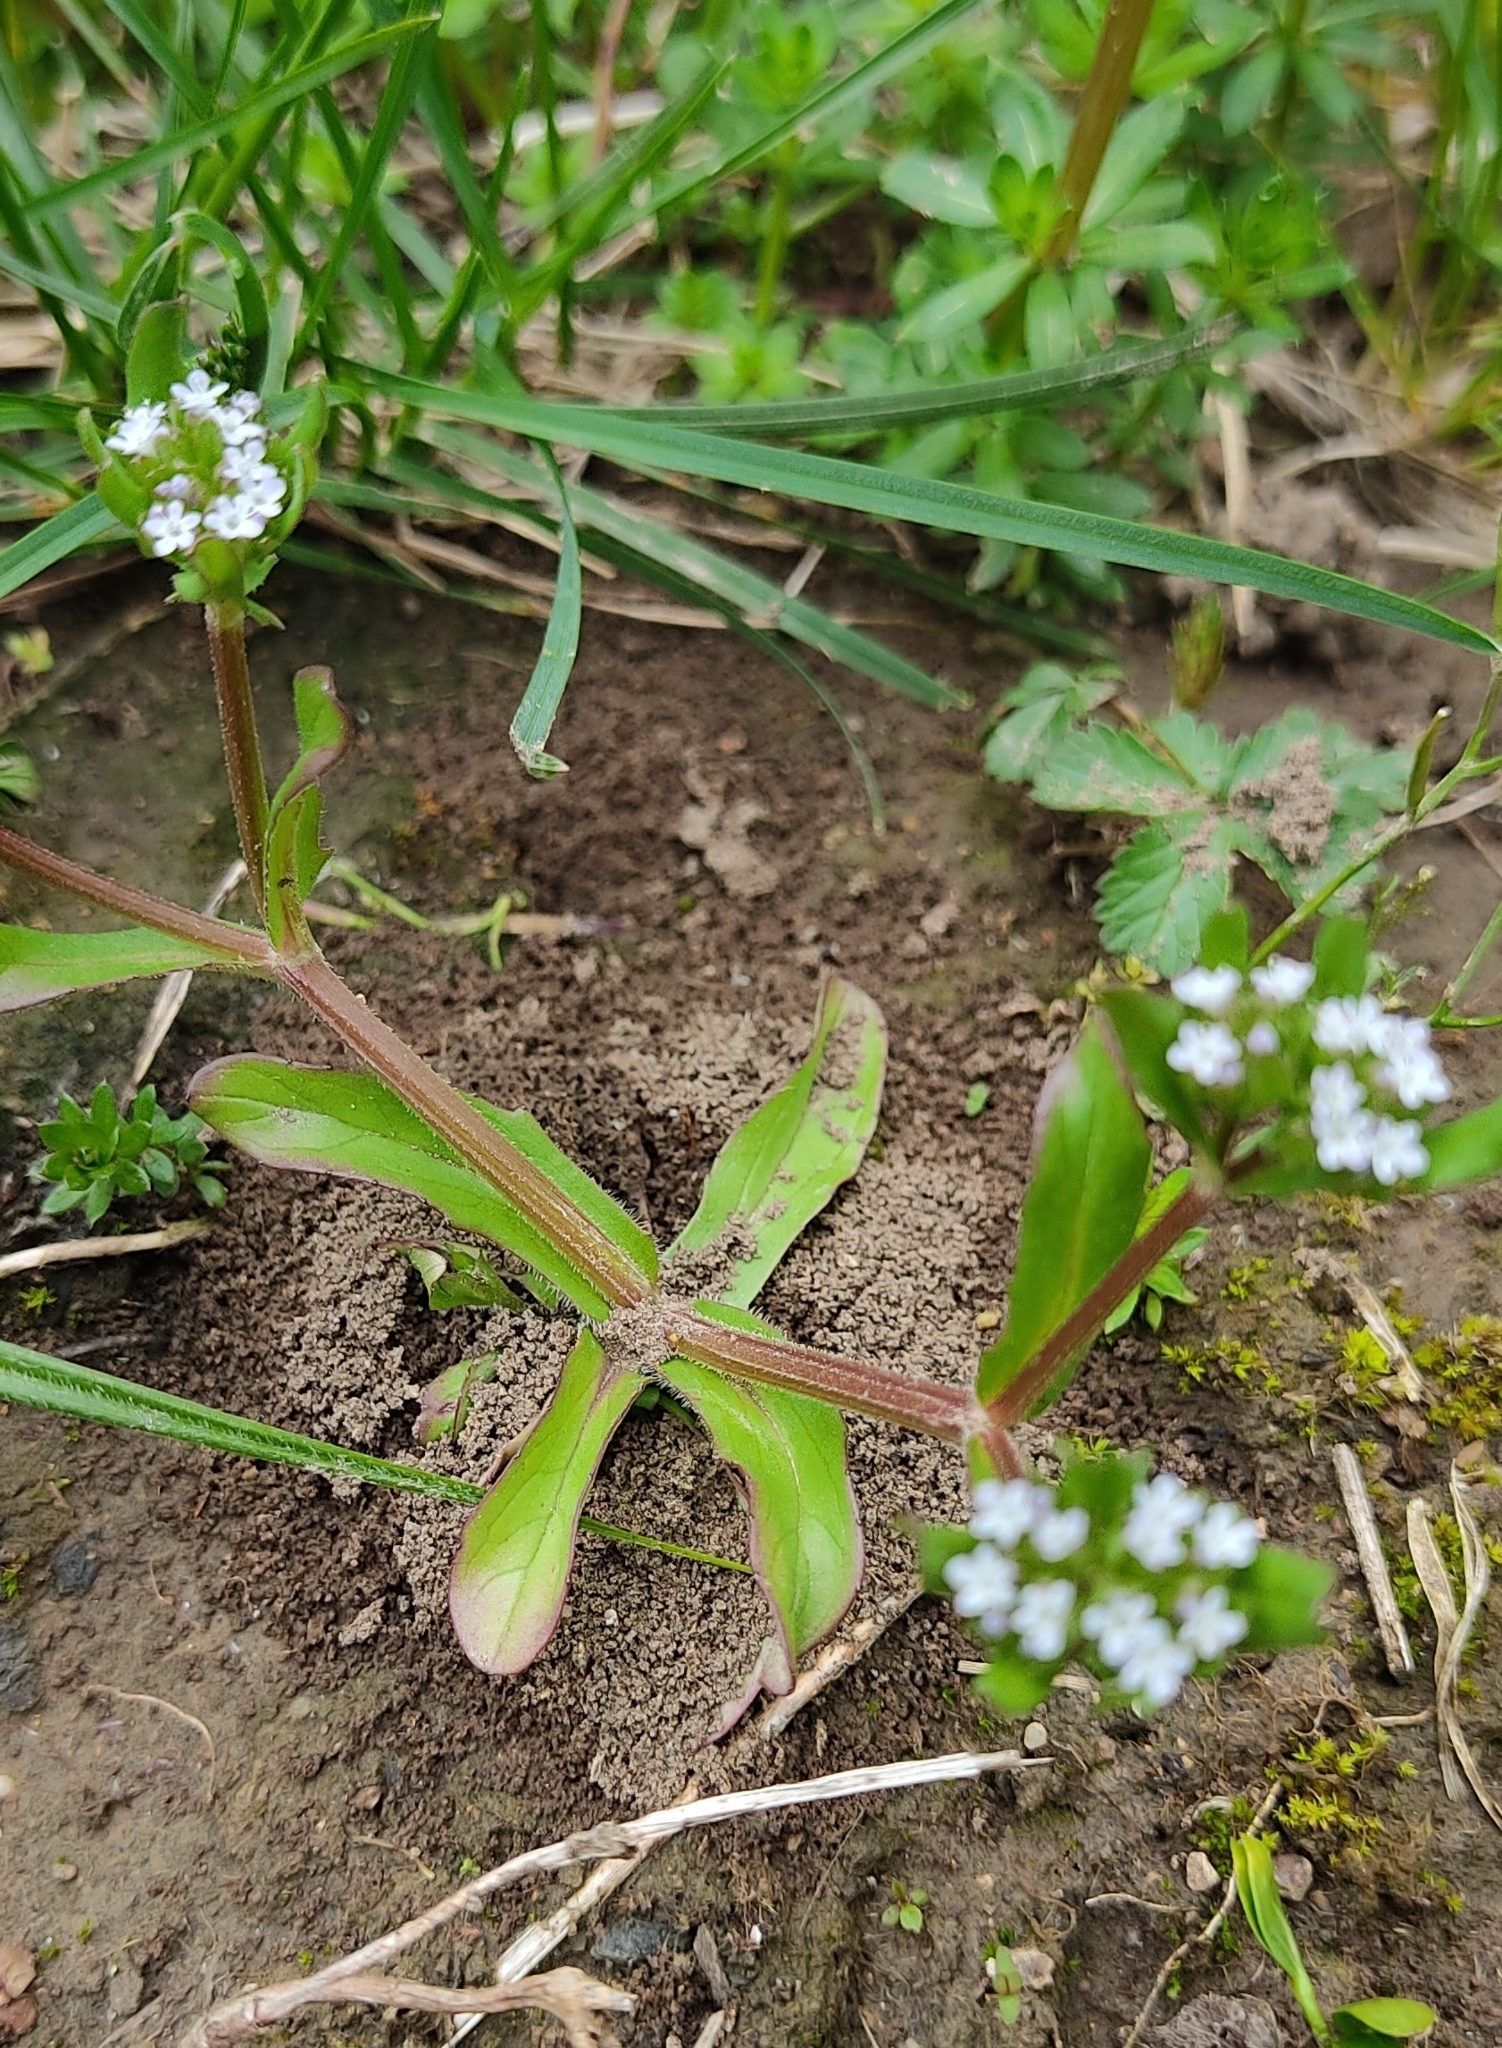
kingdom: Plantae
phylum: Tracheophyta
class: Magnoliopsida
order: Dipsacales
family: Caprifoliaceae
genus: Valerianella
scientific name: Valerianella locusta
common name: Common cornsalad
